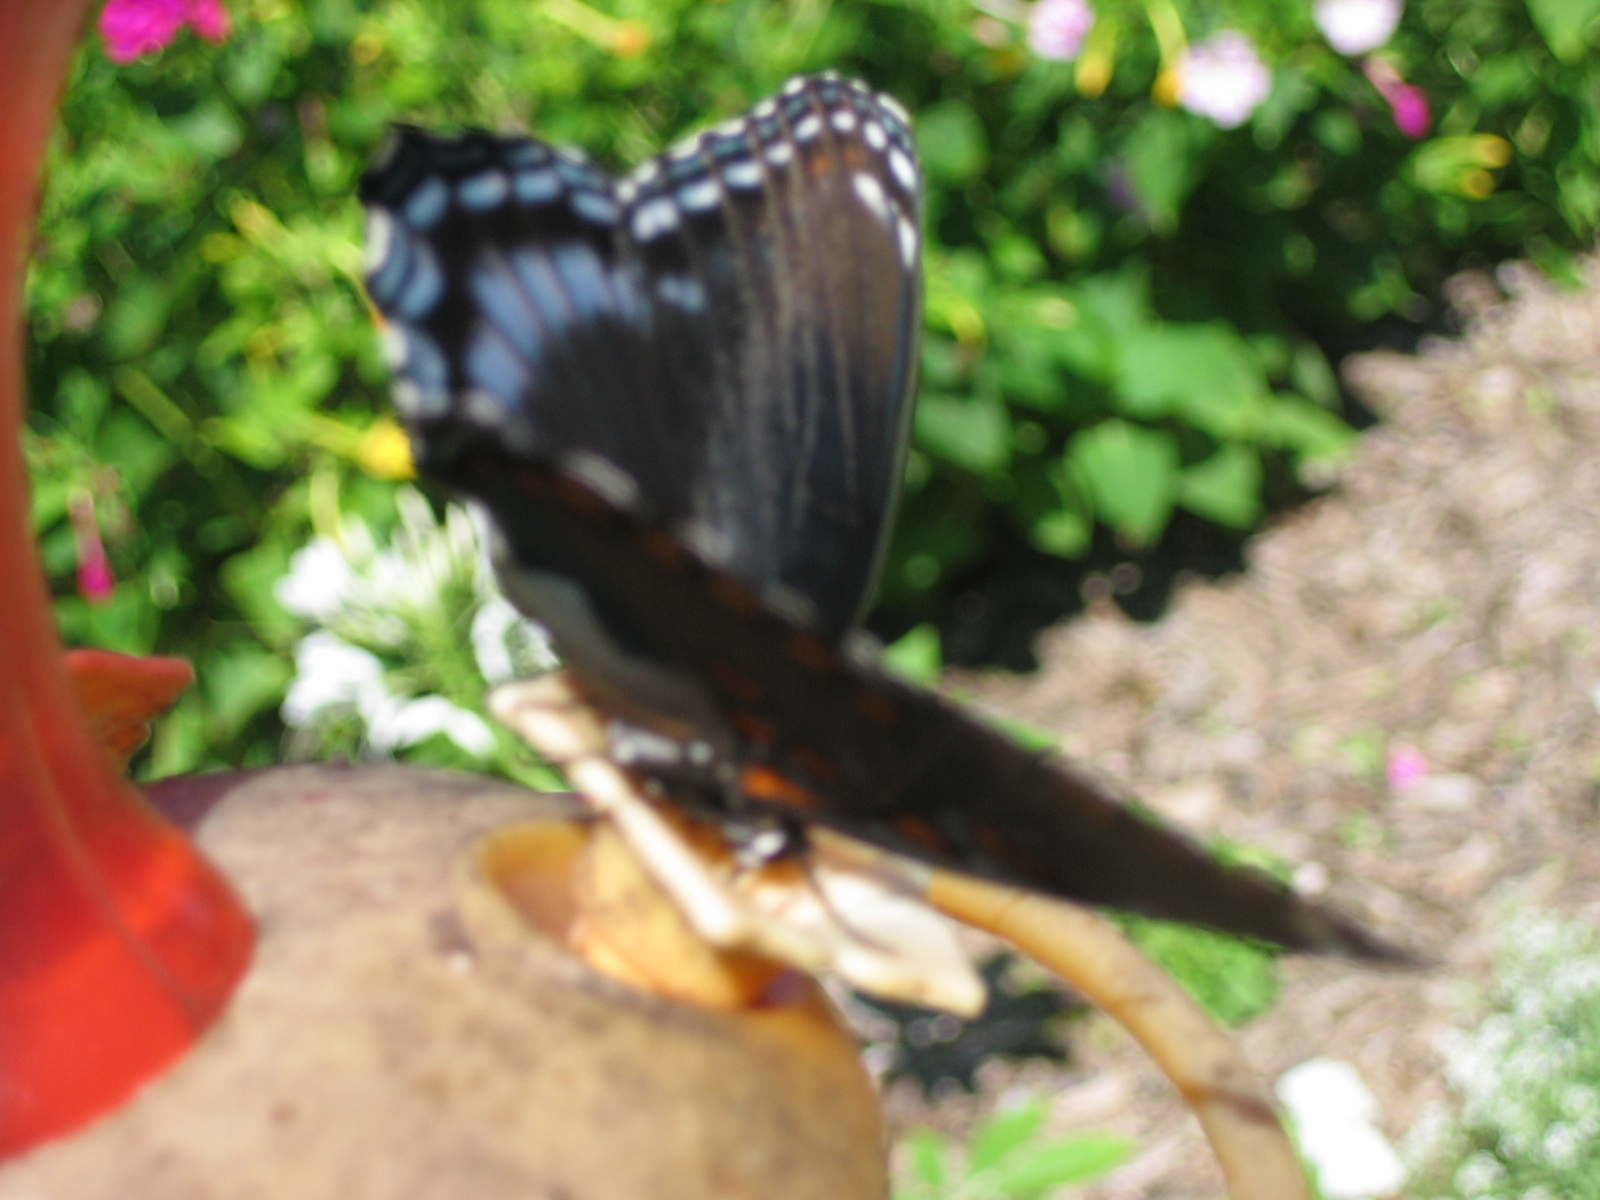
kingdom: Animalia
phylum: Arthropoda
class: Insecta
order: Lepidoptera
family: Nymphalidae
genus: Limenitis
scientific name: Limenitis astyanax
